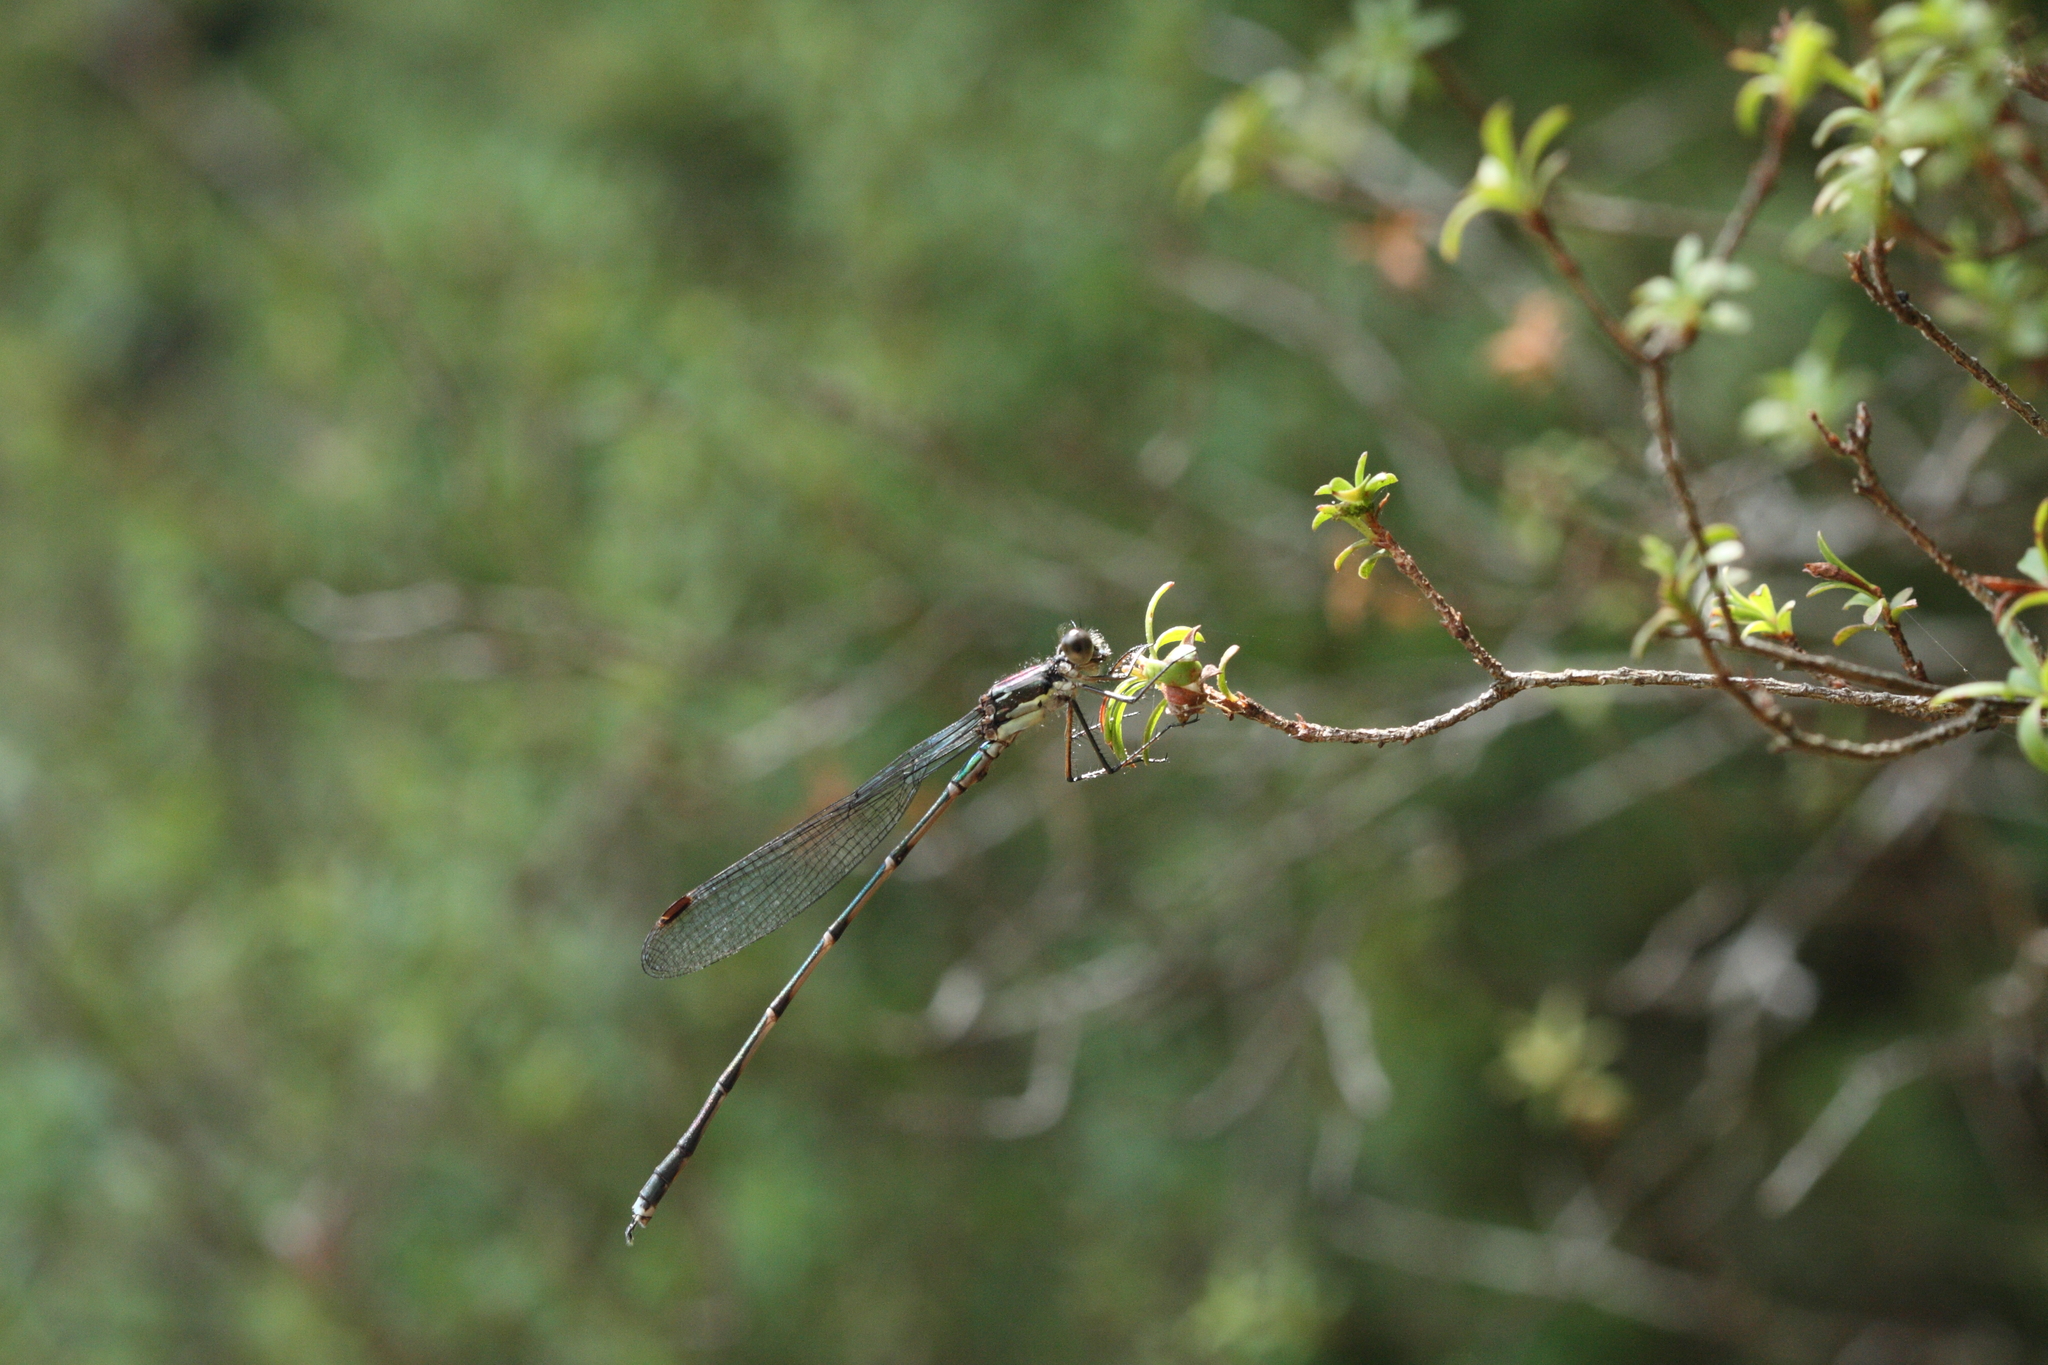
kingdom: Animalia
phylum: Arthropoda
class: Insecta
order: Odonata
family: Lestidae
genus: Austrolestes
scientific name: Austrolestes colensonis
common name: Blue damselfly
